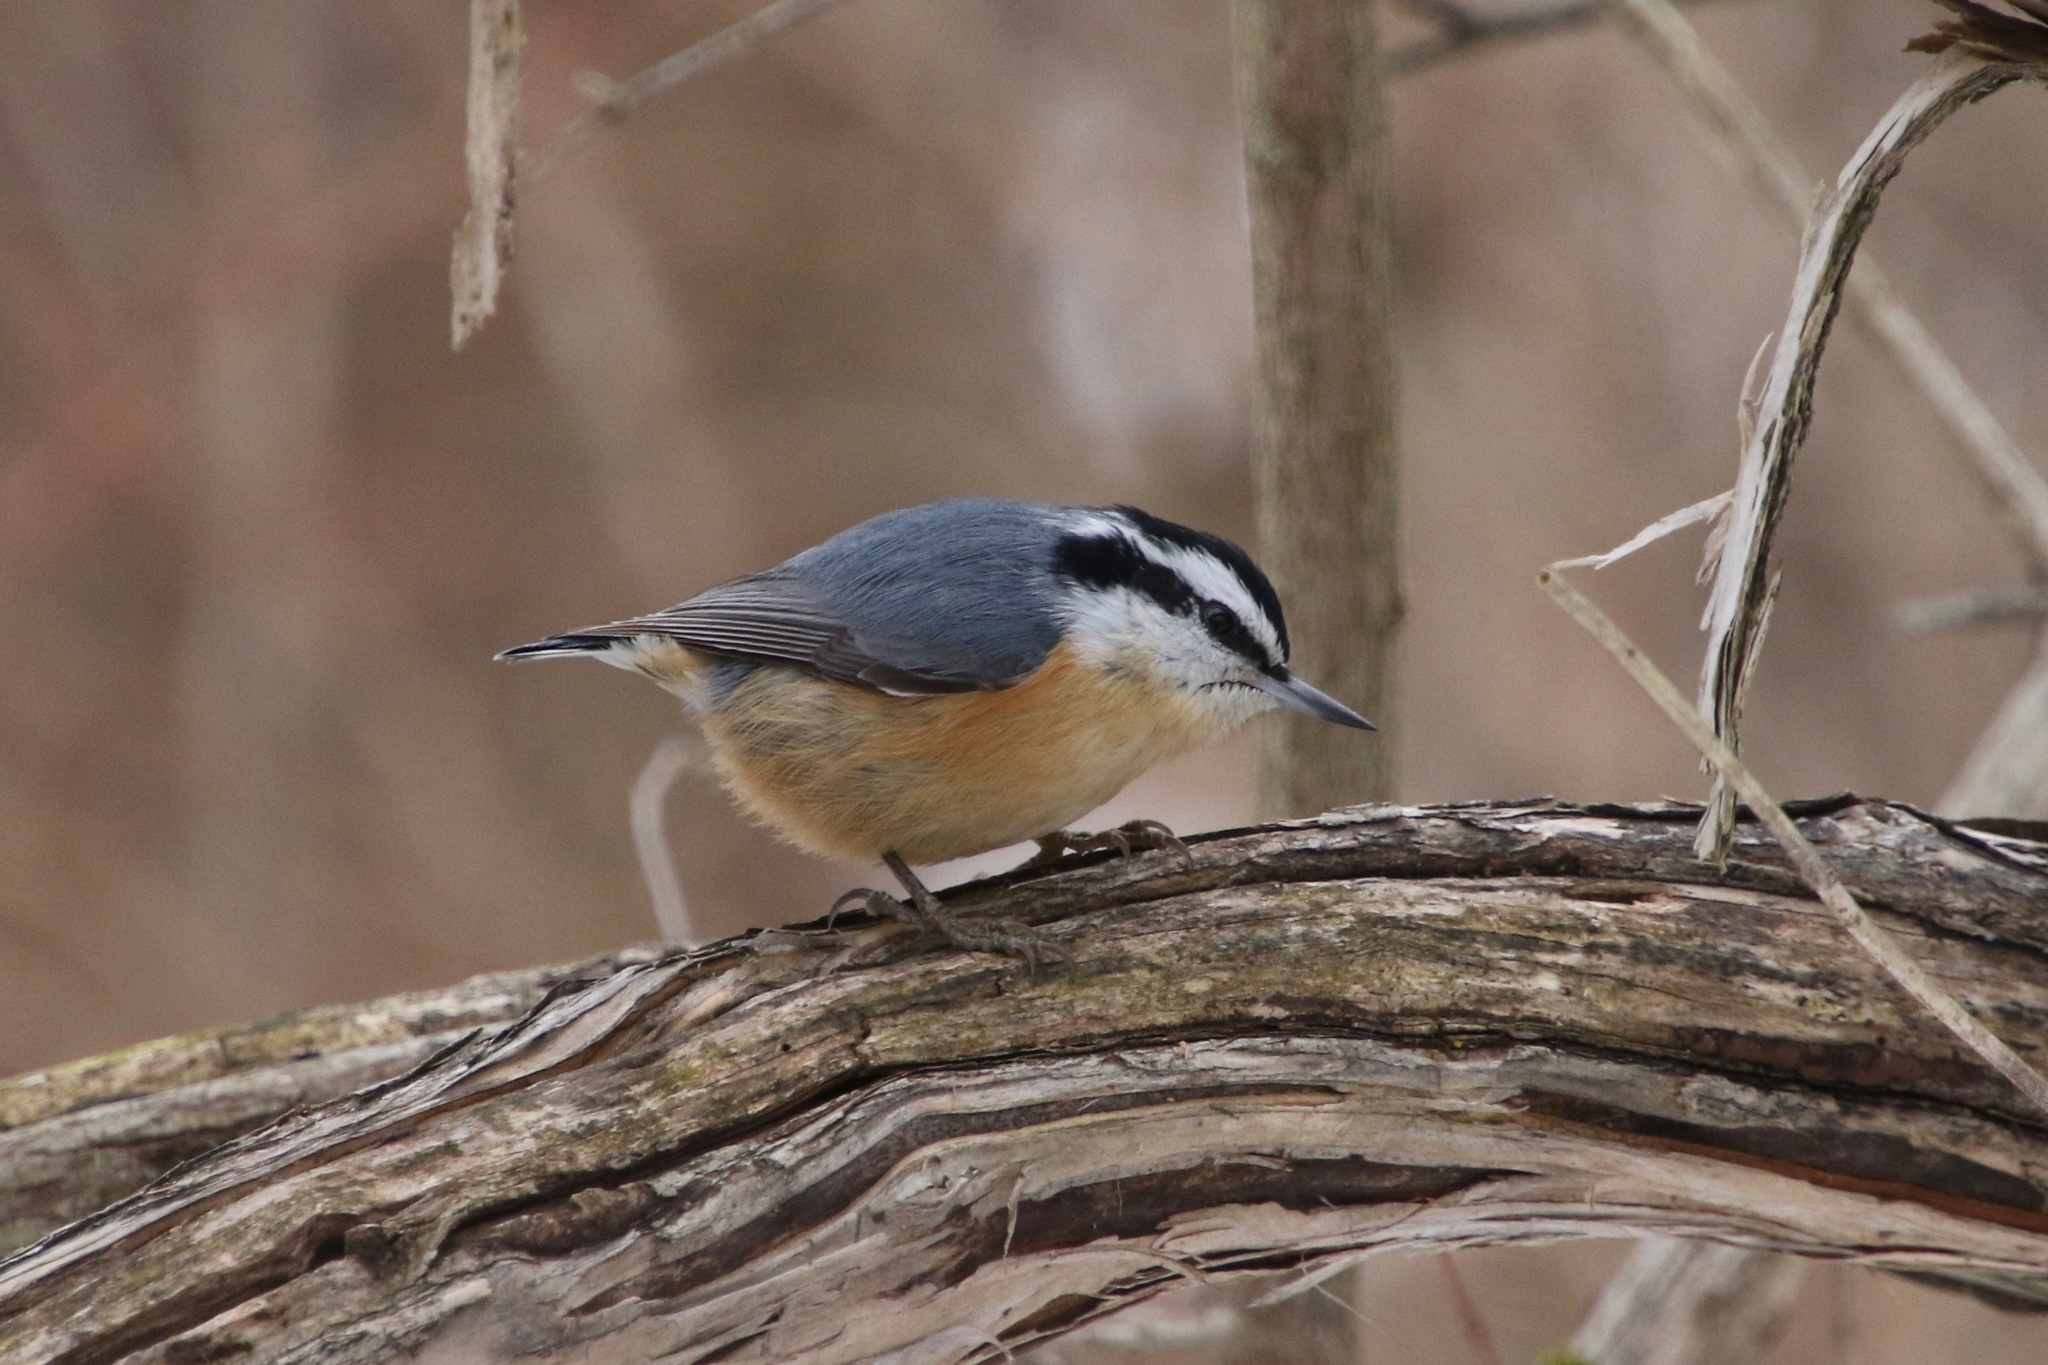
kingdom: Animalia
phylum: Chordata
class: Aves
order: Passeriformes
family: Sittidae
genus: Sitta
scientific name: Sitta canadensis
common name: Red-breasted nuthatch
